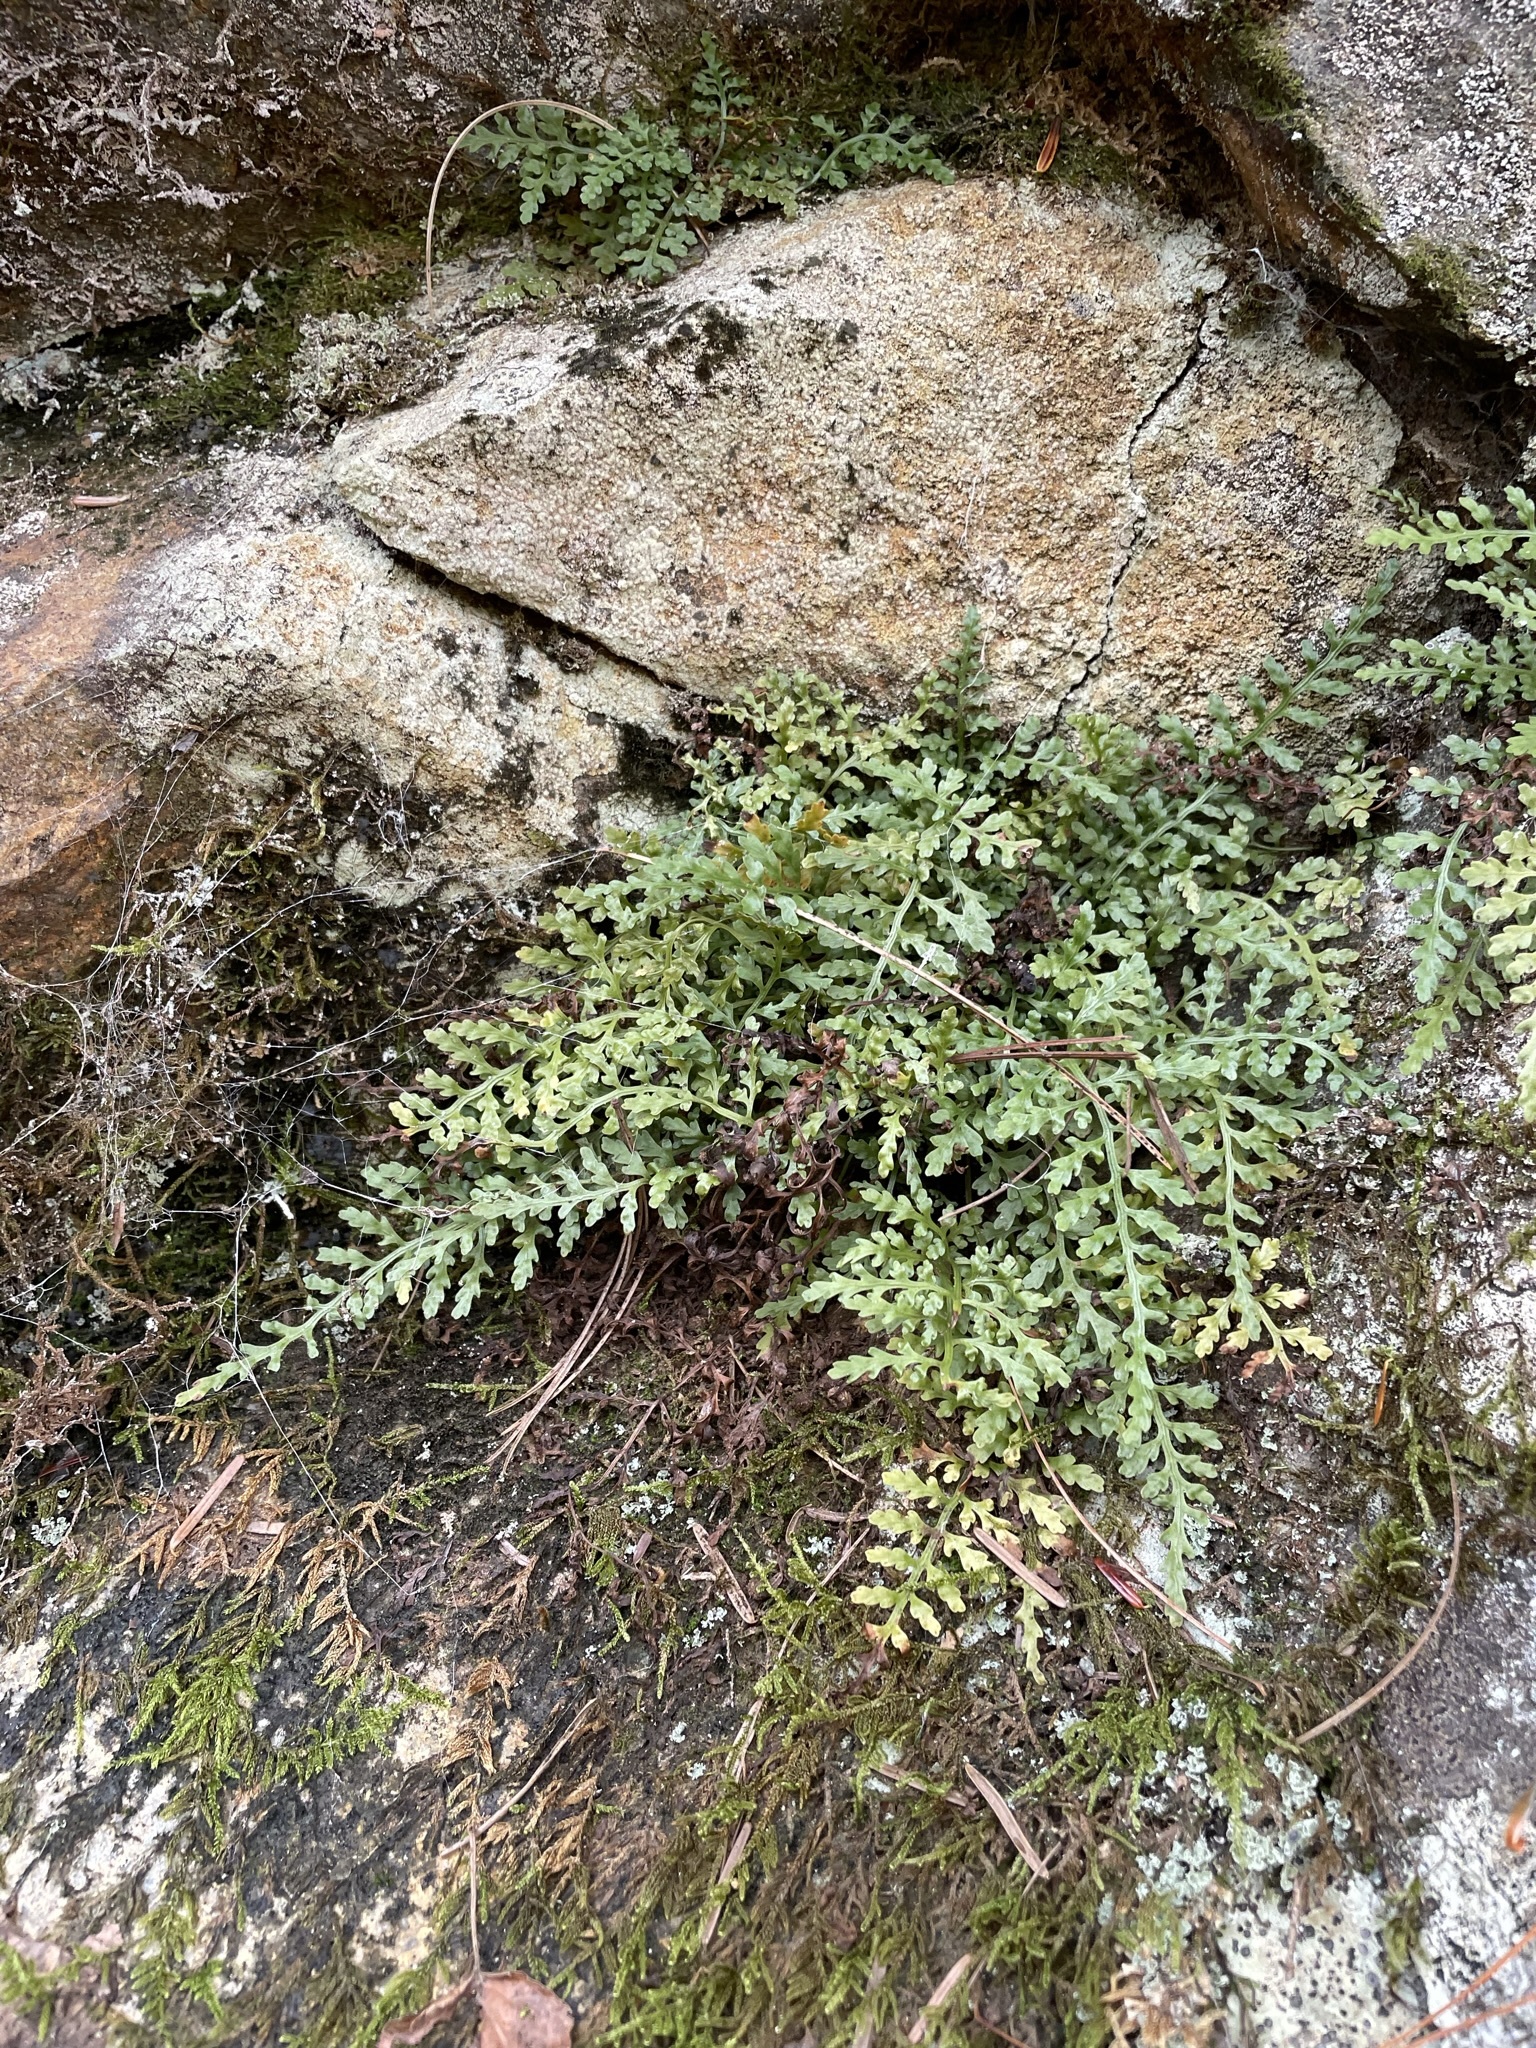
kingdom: Plantae
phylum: Tracheophyta
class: Polypodiopsida
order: Polypodiales
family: Aspleniaceae
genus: Asplenium
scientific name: Asplenium montanum
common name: Mountain spleenwort
